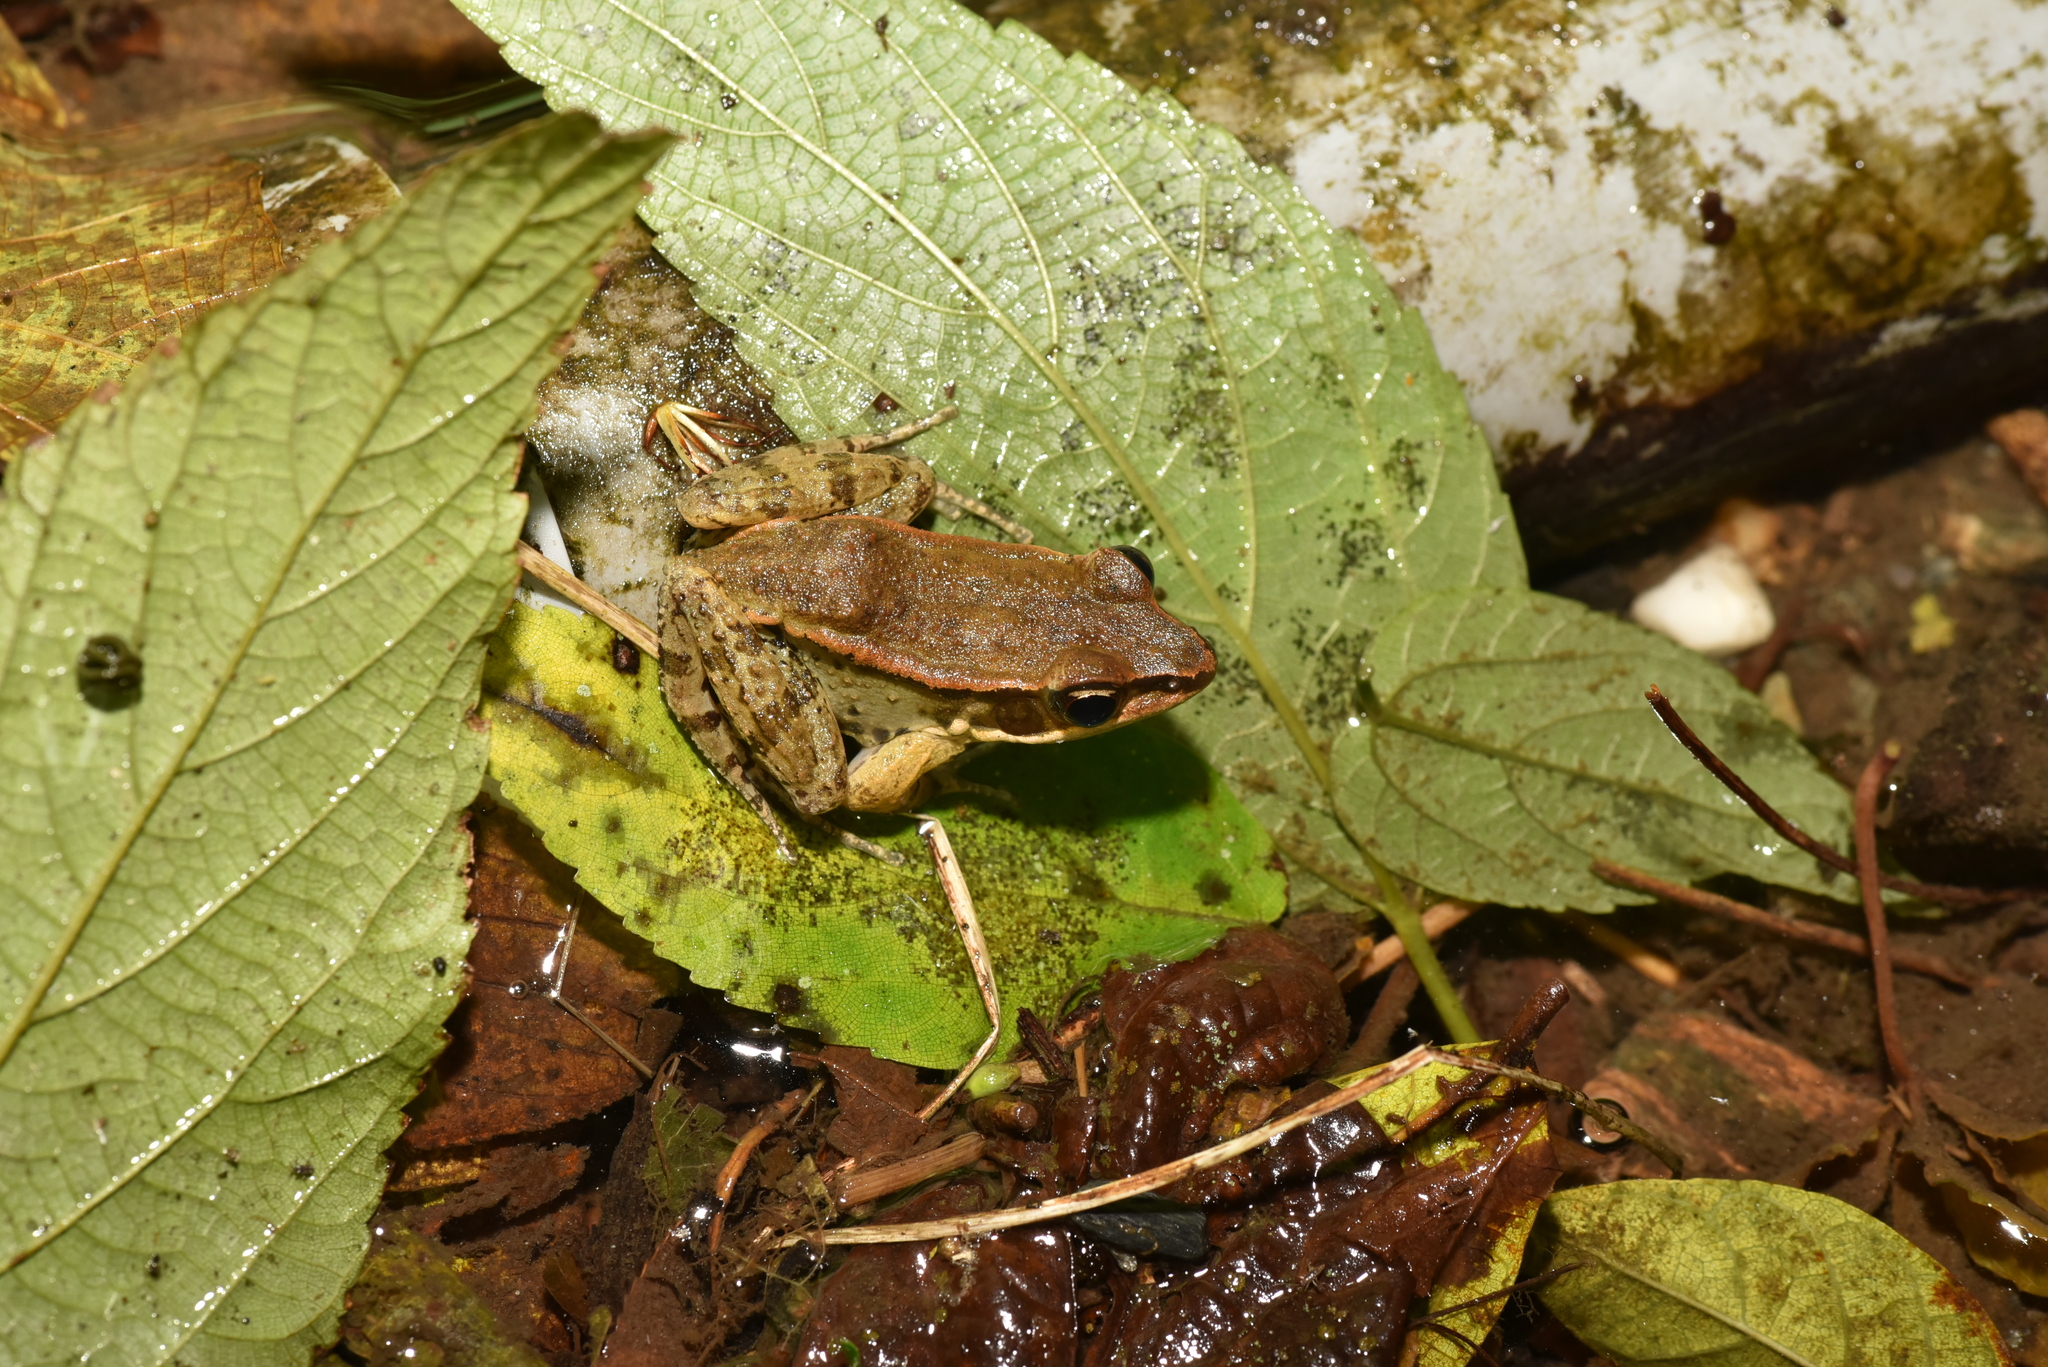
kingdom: Animalia
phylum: Chordata
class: Amphibia
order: Anura
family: Ranidae
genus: Hylarana
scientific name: Hylarana latouchii
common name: Broad-folded frog
